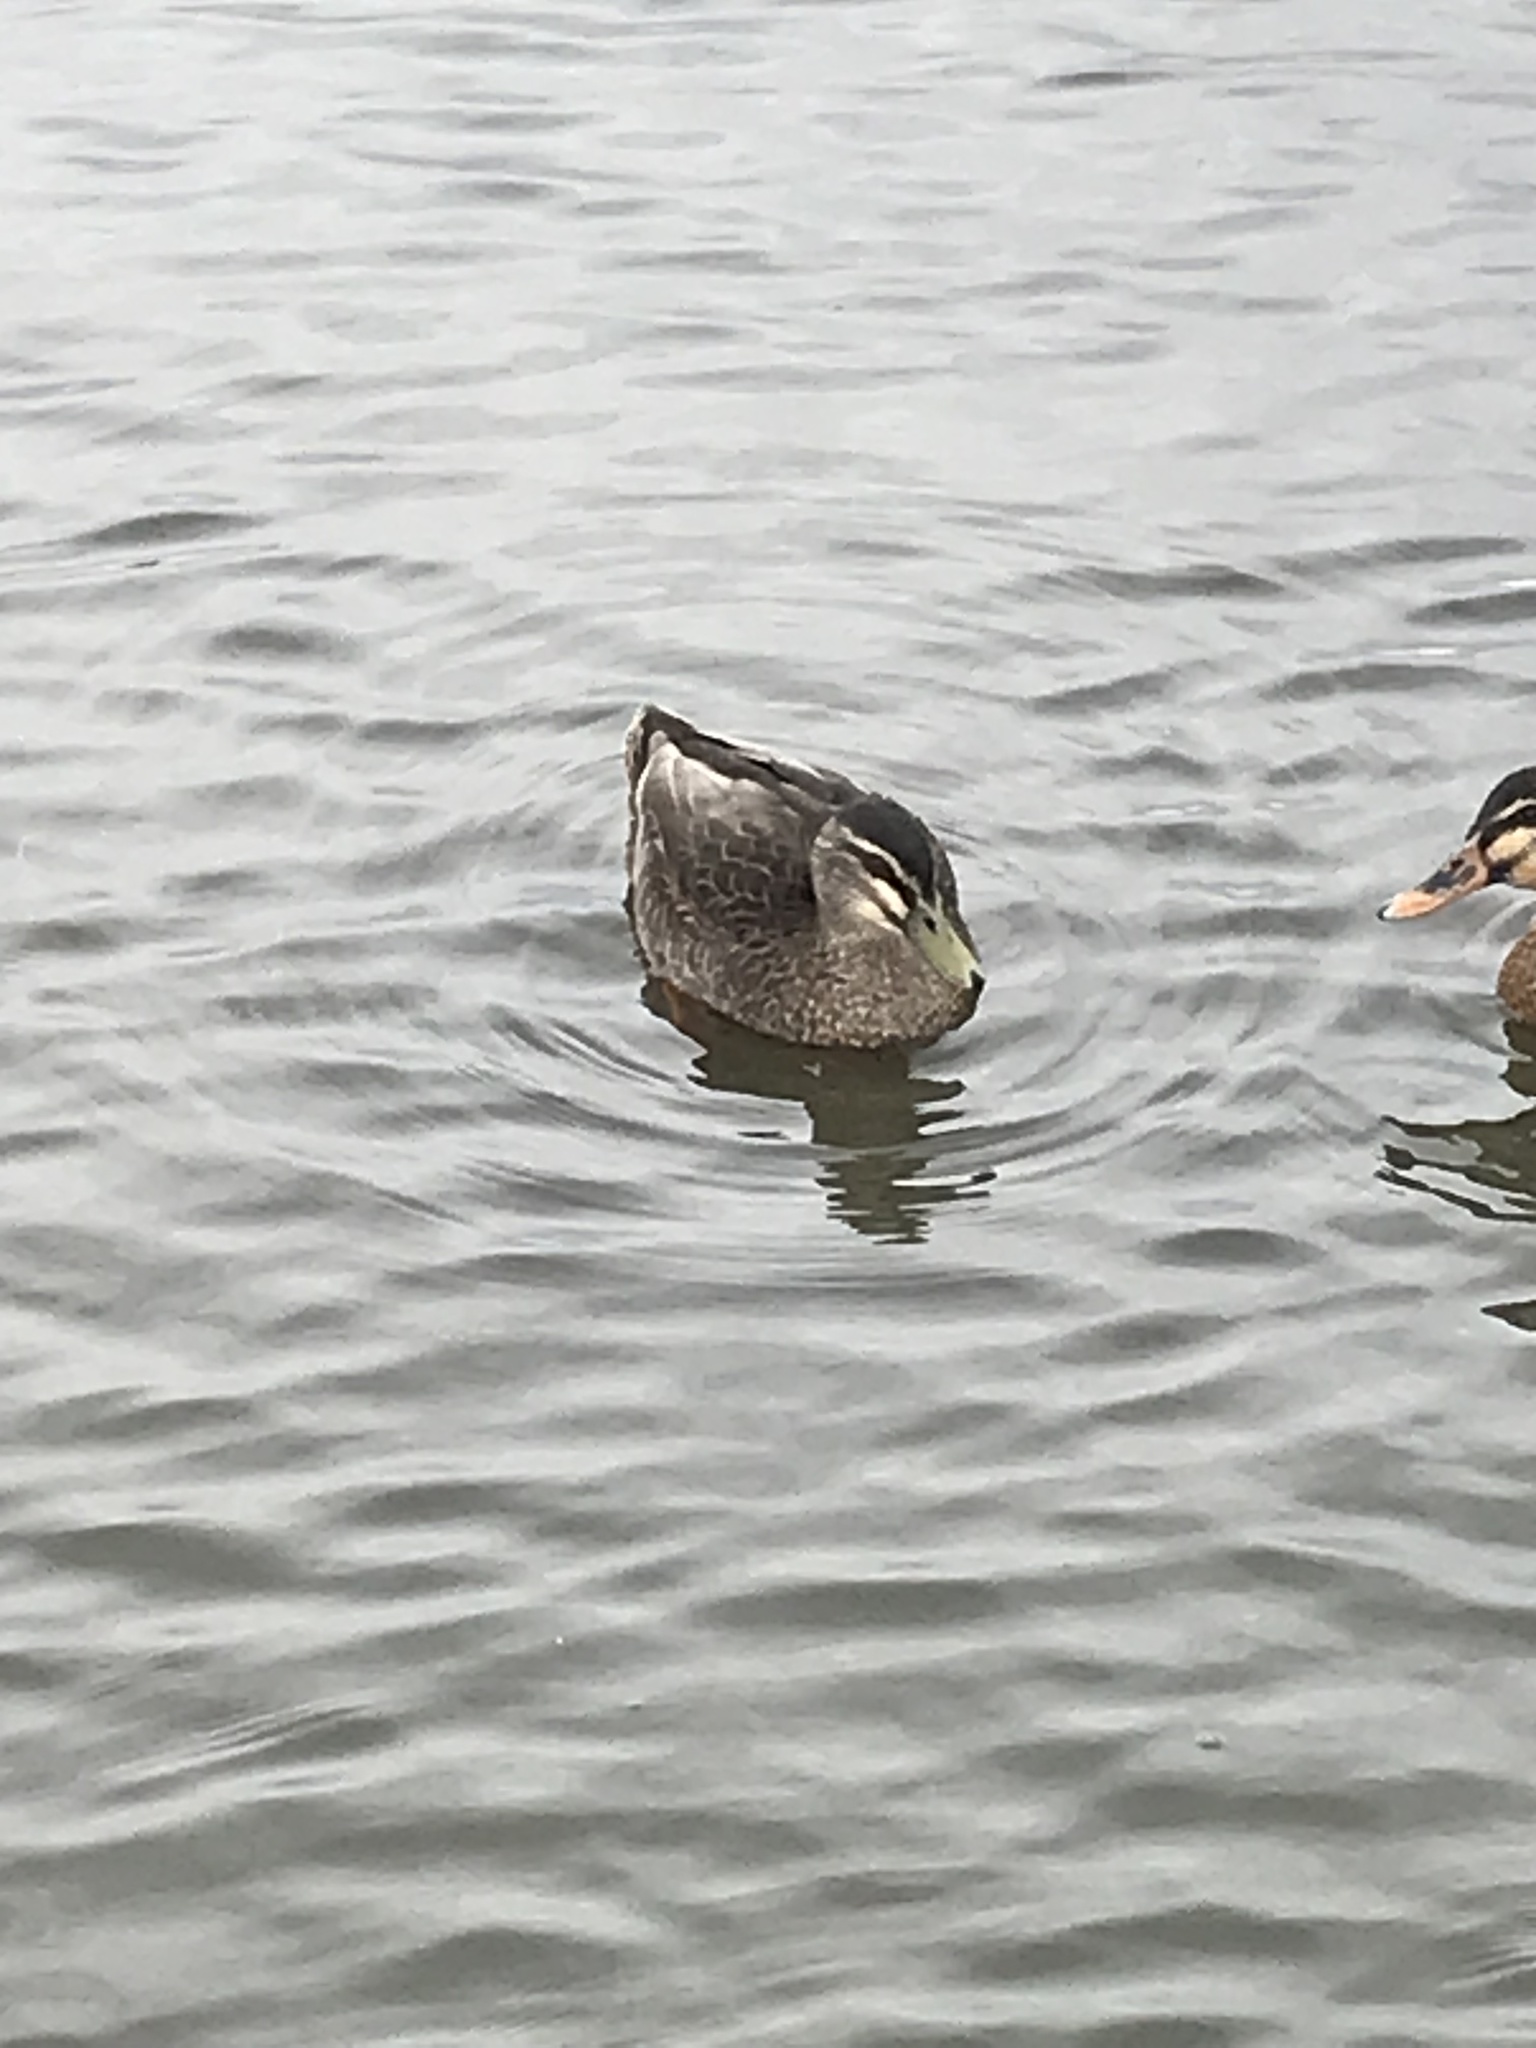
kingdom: Animalia
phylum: Chordata
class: Aves
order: Anseriformes
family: Anatidae
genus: Anas
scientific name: Anas
